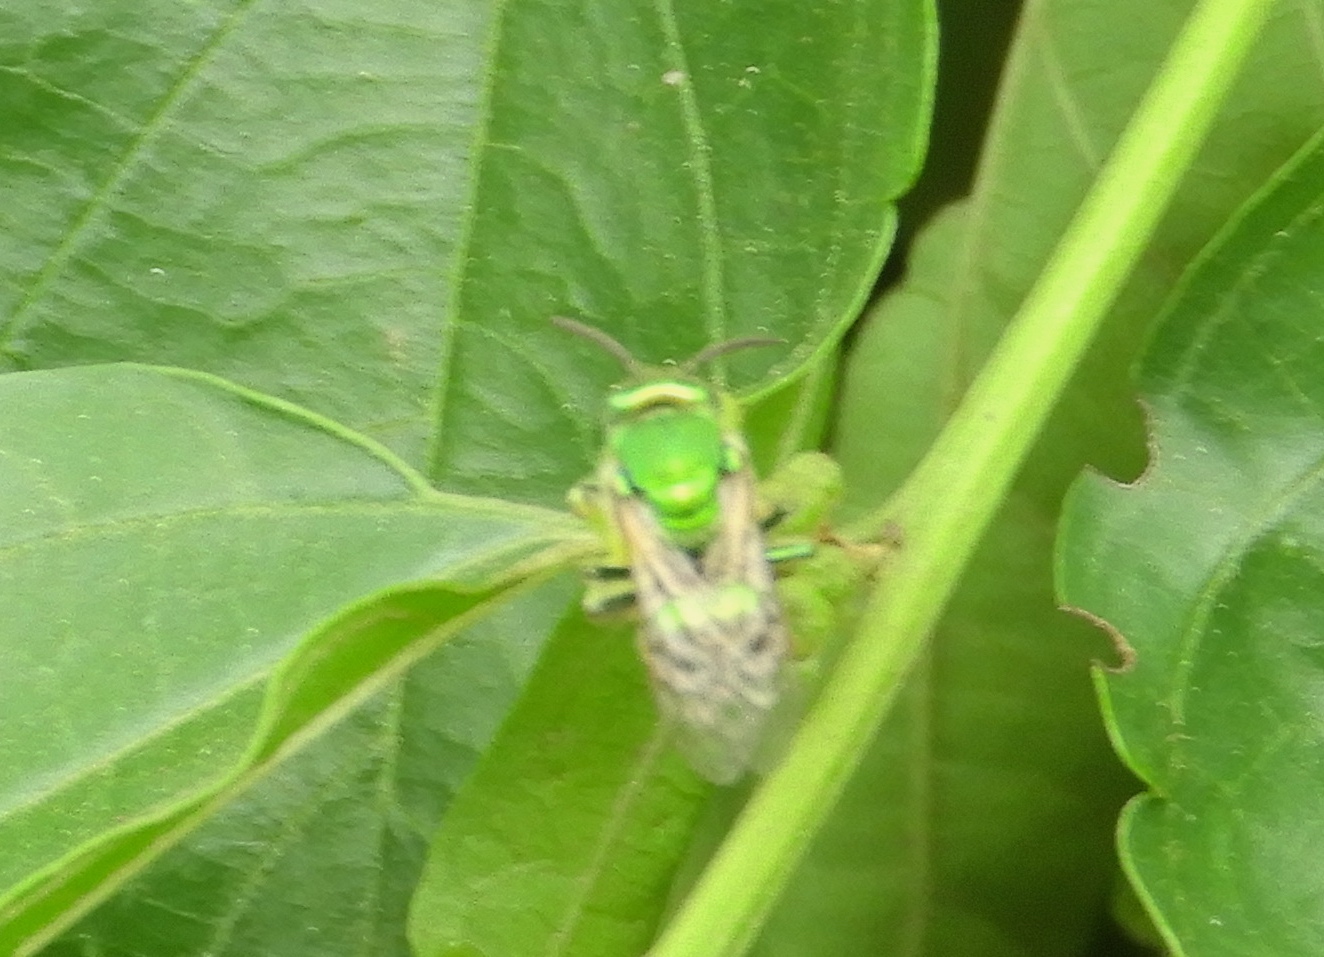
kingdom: Animalia
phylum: Arthropoda
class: Insecta
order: Hymenoptera
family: Halictidae
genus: Augochloropsis
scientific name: Augochloropsis
